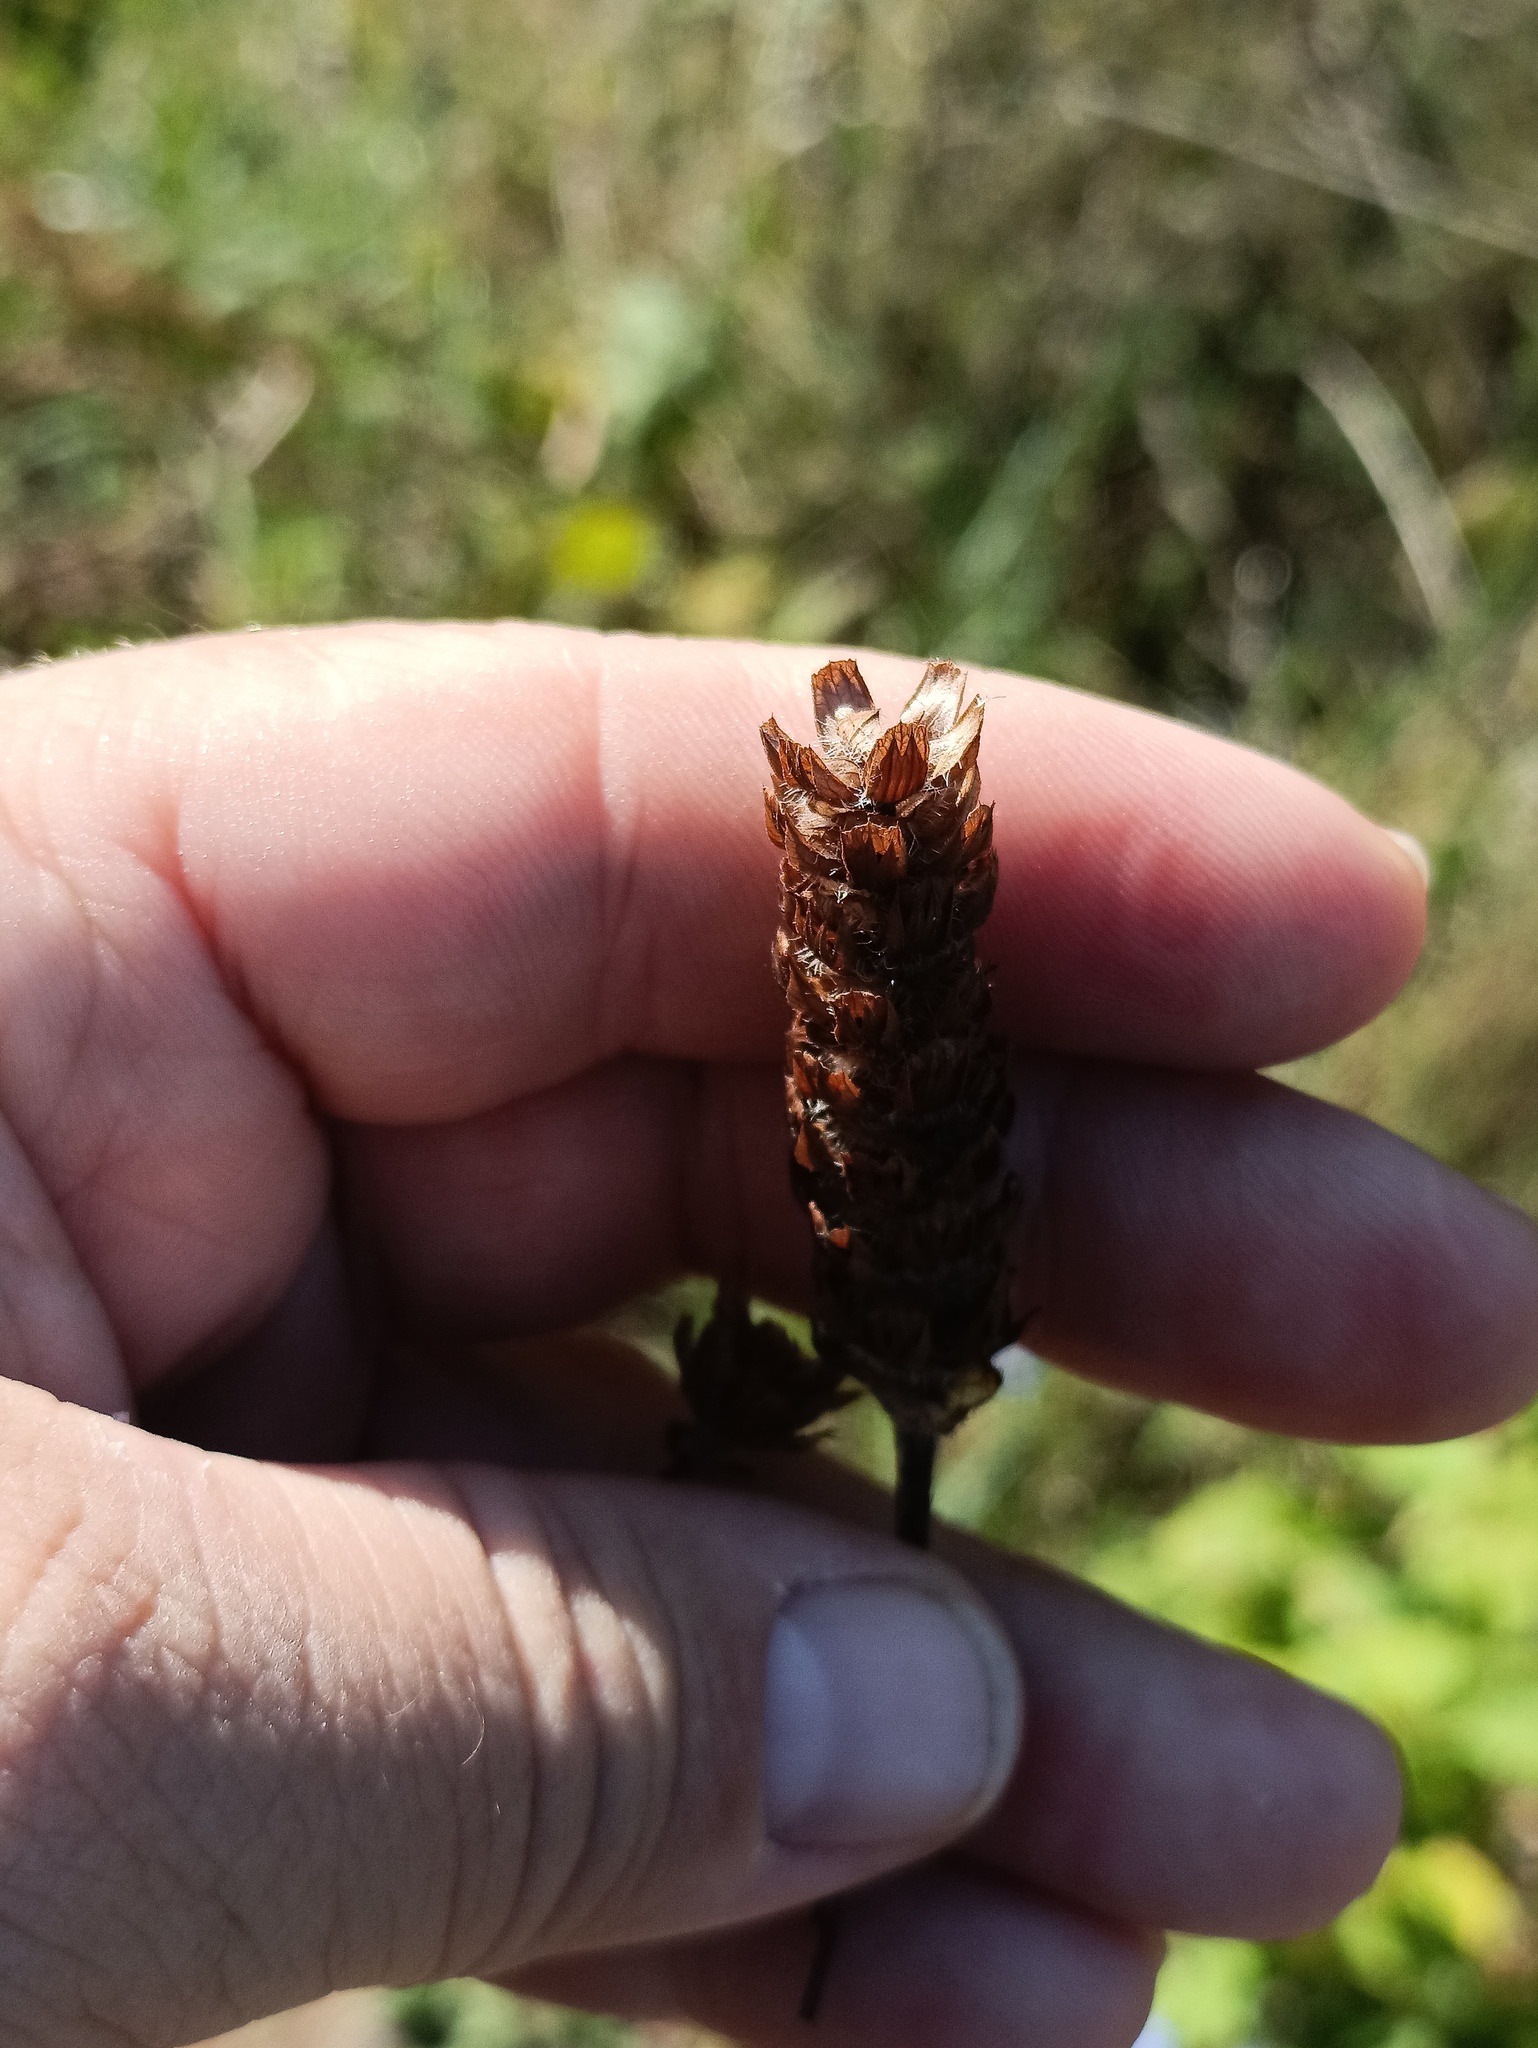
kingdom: Plantae
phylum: Tracheophyta
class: Magnoliopsida
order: Lamiales
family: Lamiaceae
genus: Prunella
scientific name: Prunella vulgaris
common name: Heal-all
